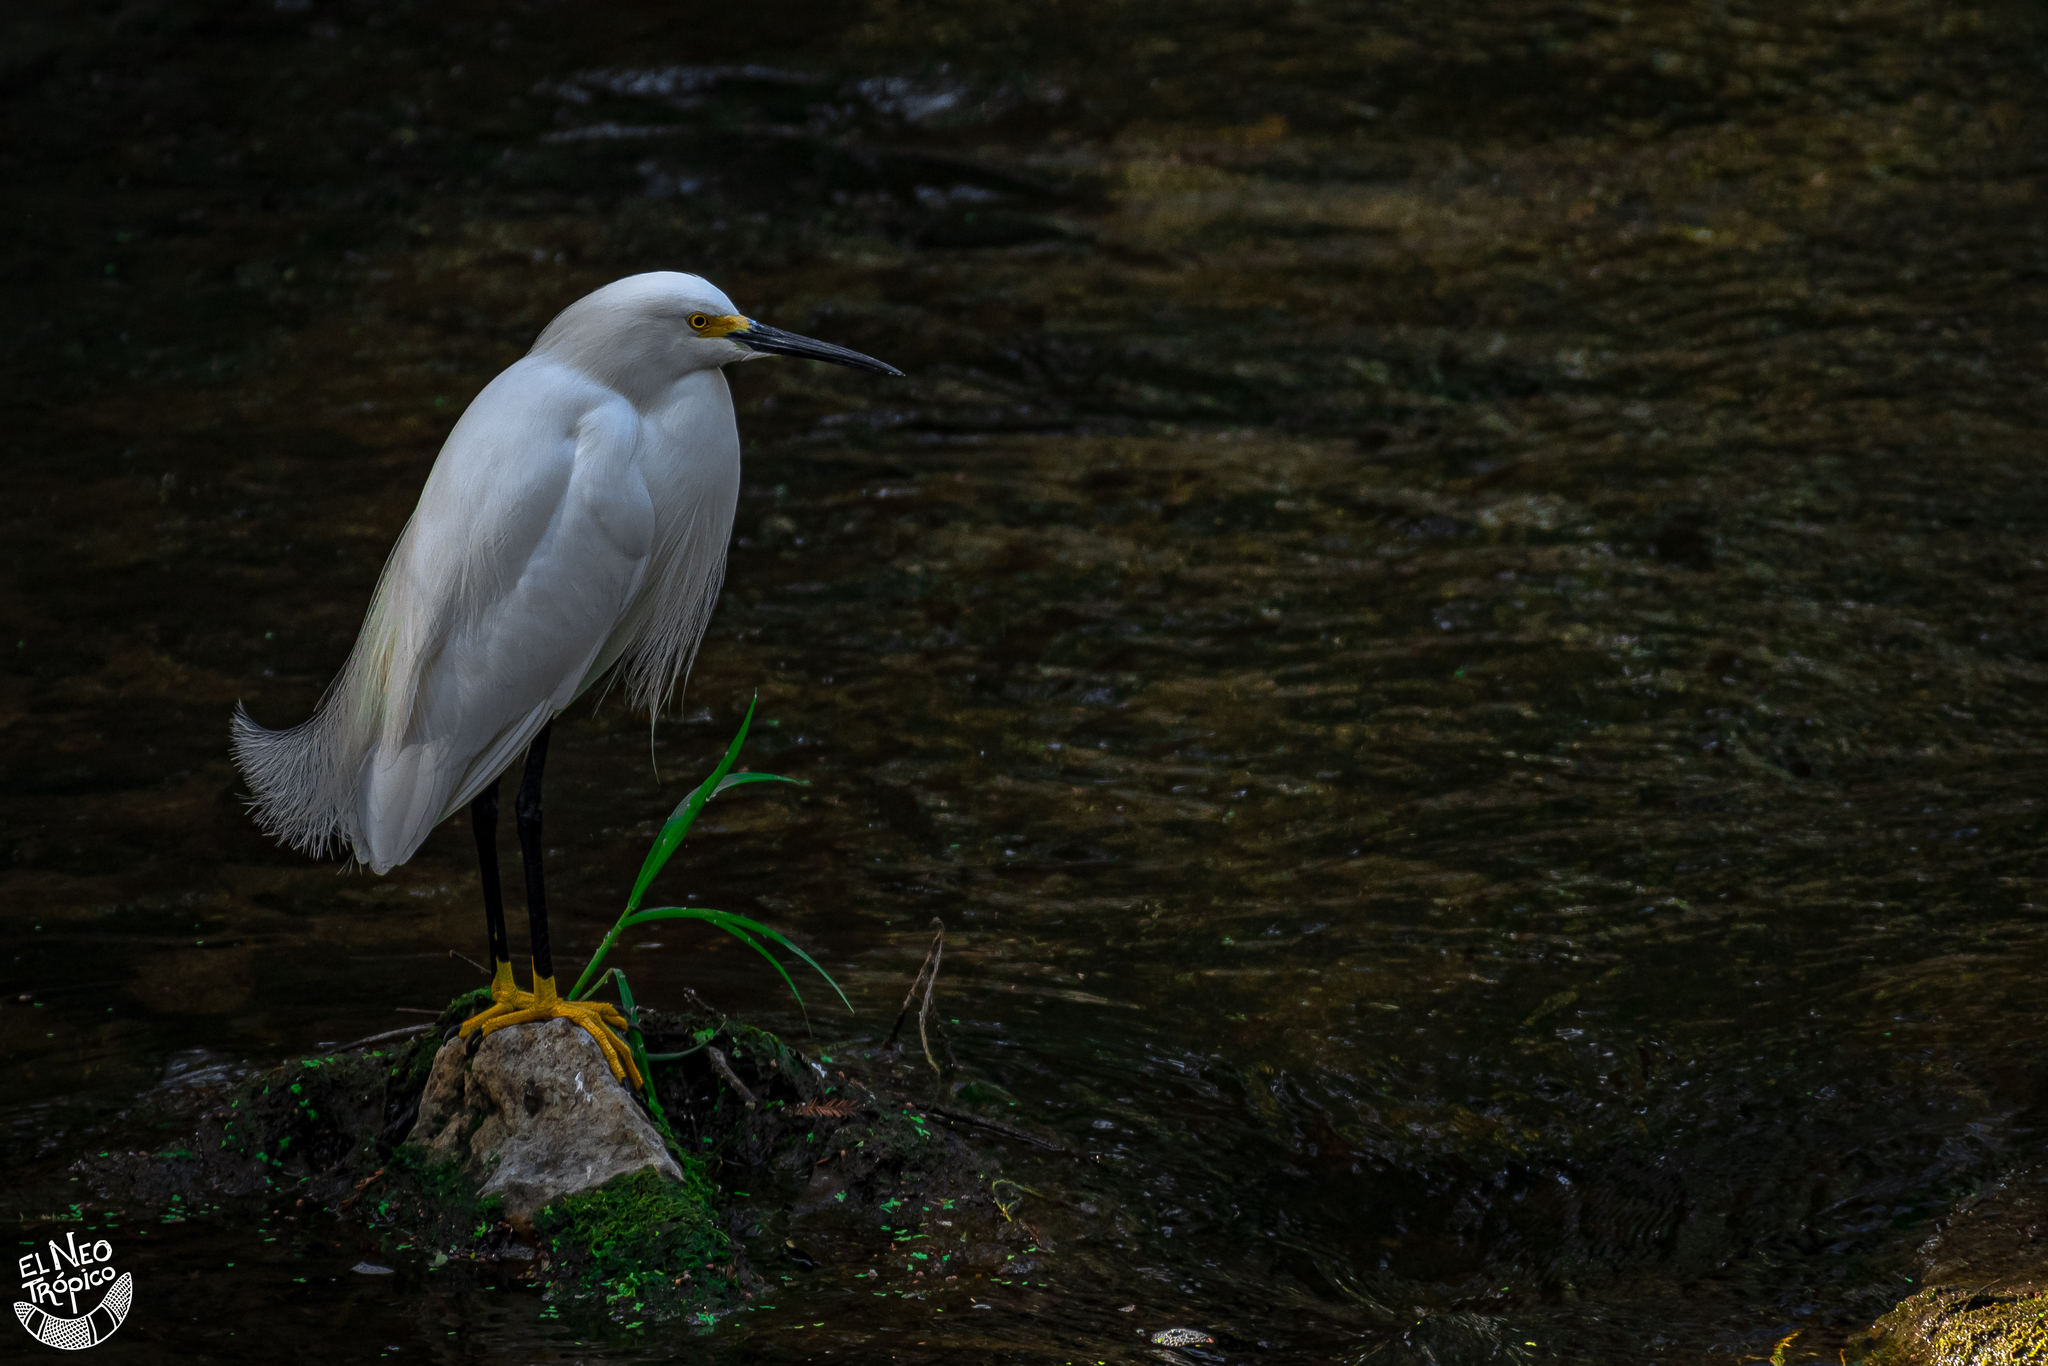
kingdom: Animalia
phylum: Chordata
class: Aves
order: Pelecaniformes
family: Ardeidae
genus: Egretta
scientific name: Egretta thula
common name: Snowy egret
